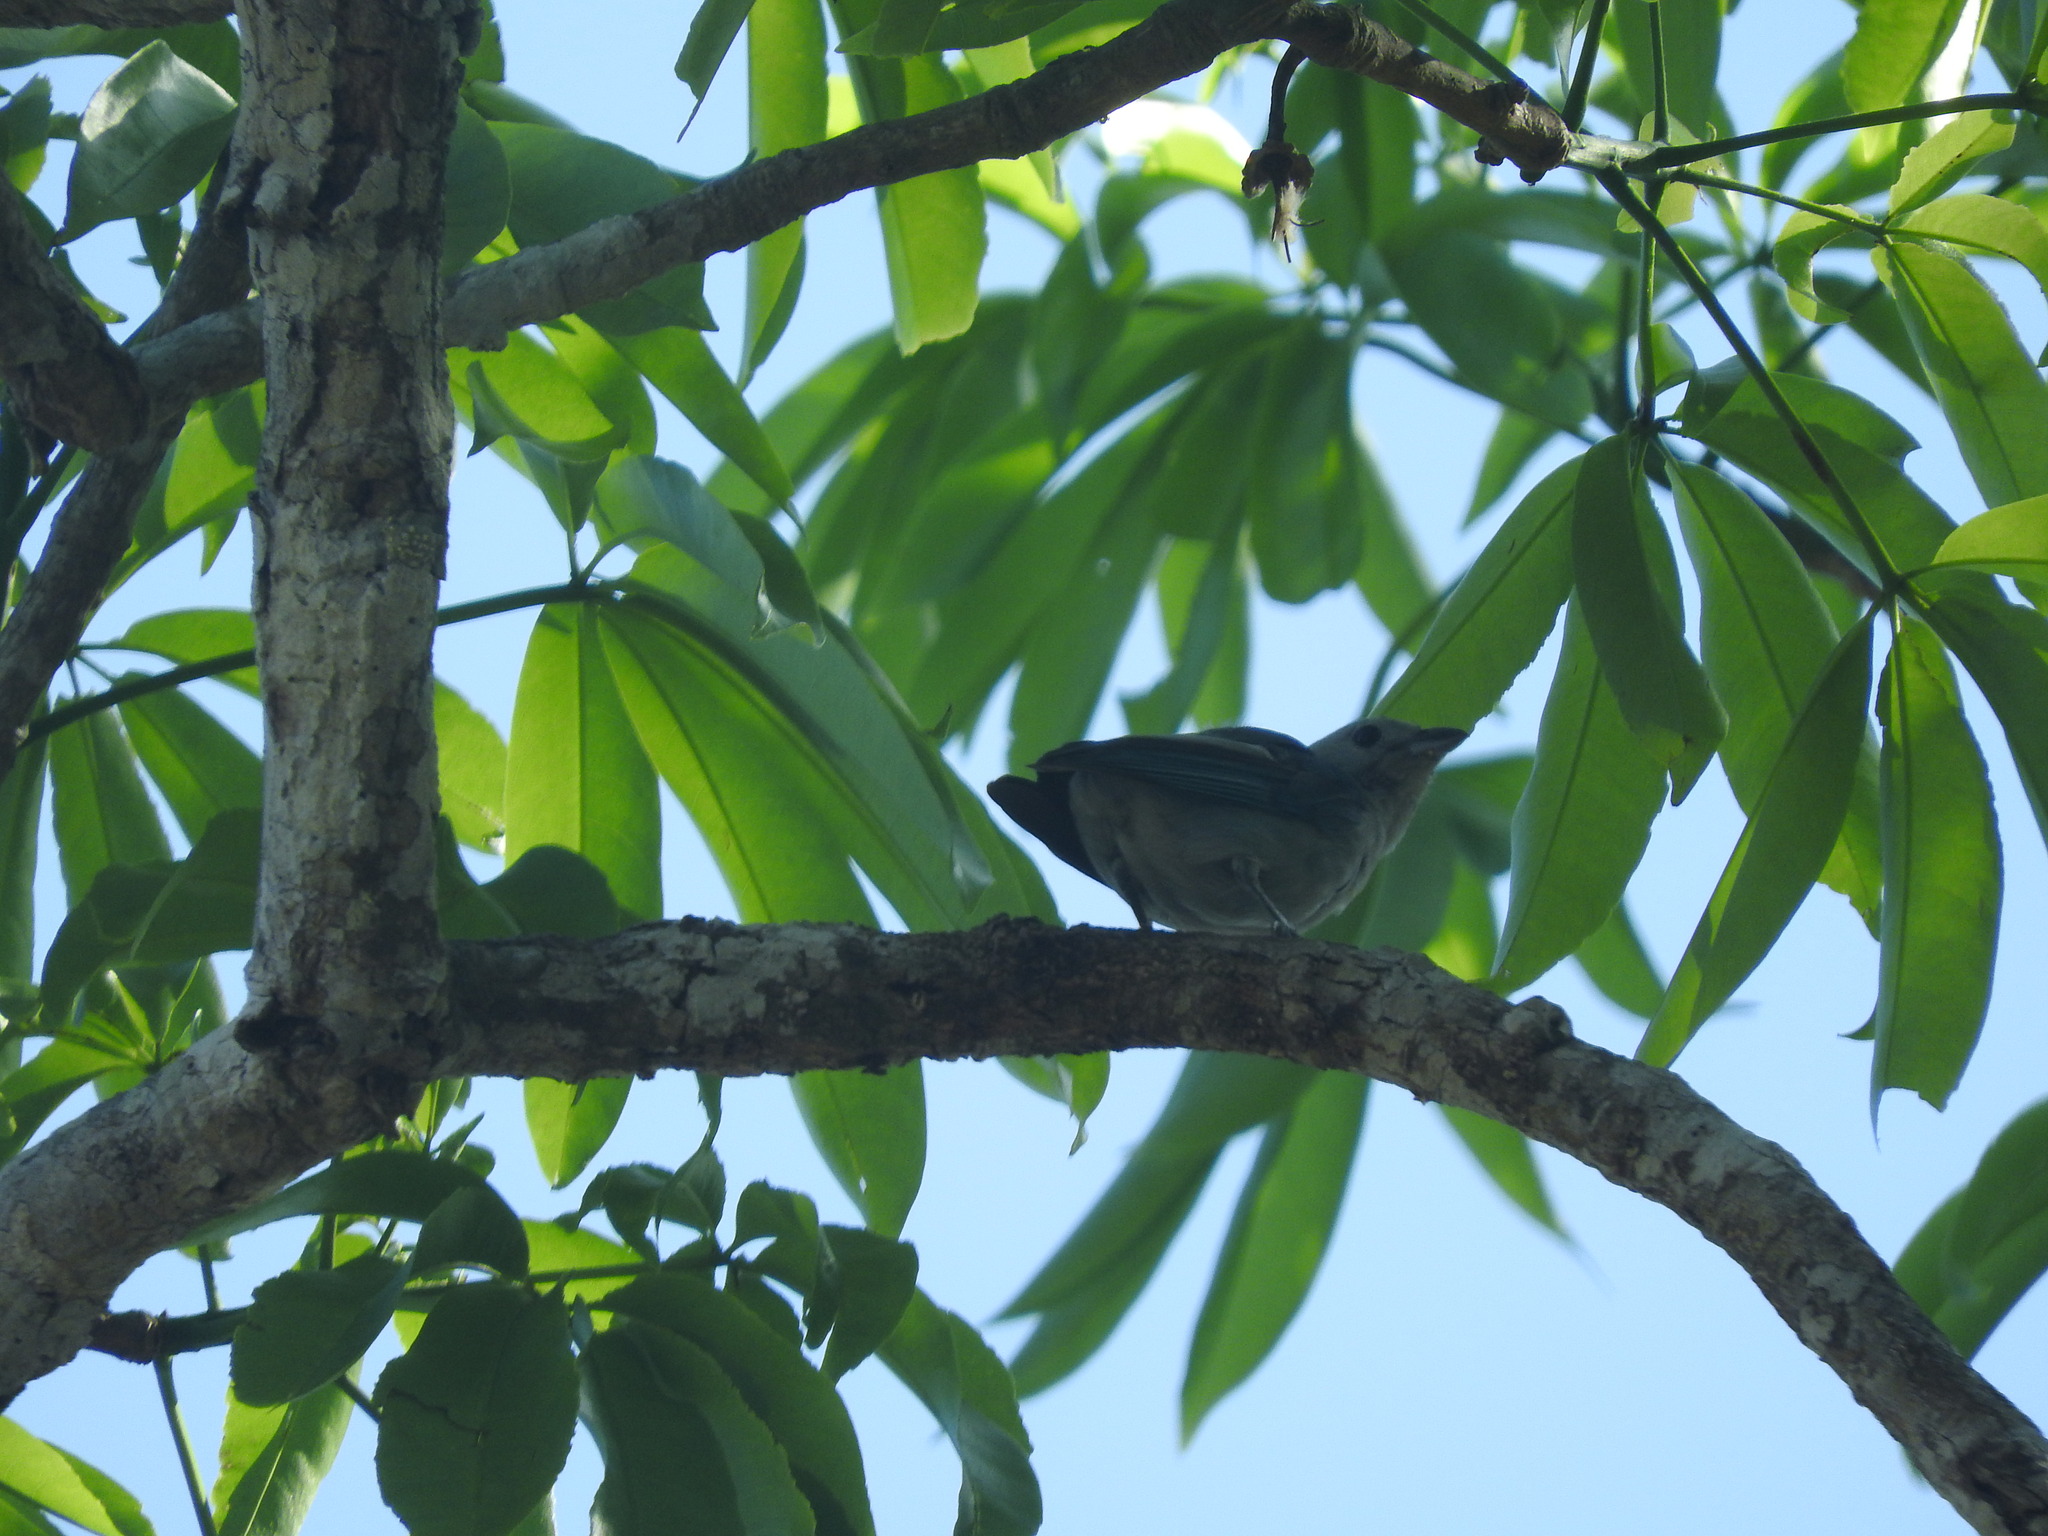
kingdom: Animalia
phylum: Chordata
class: Aves
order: Passeriformes
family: Thraupidae
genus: Thraupis
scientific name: Thraupis episcopus
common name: Blue-grey tanager
